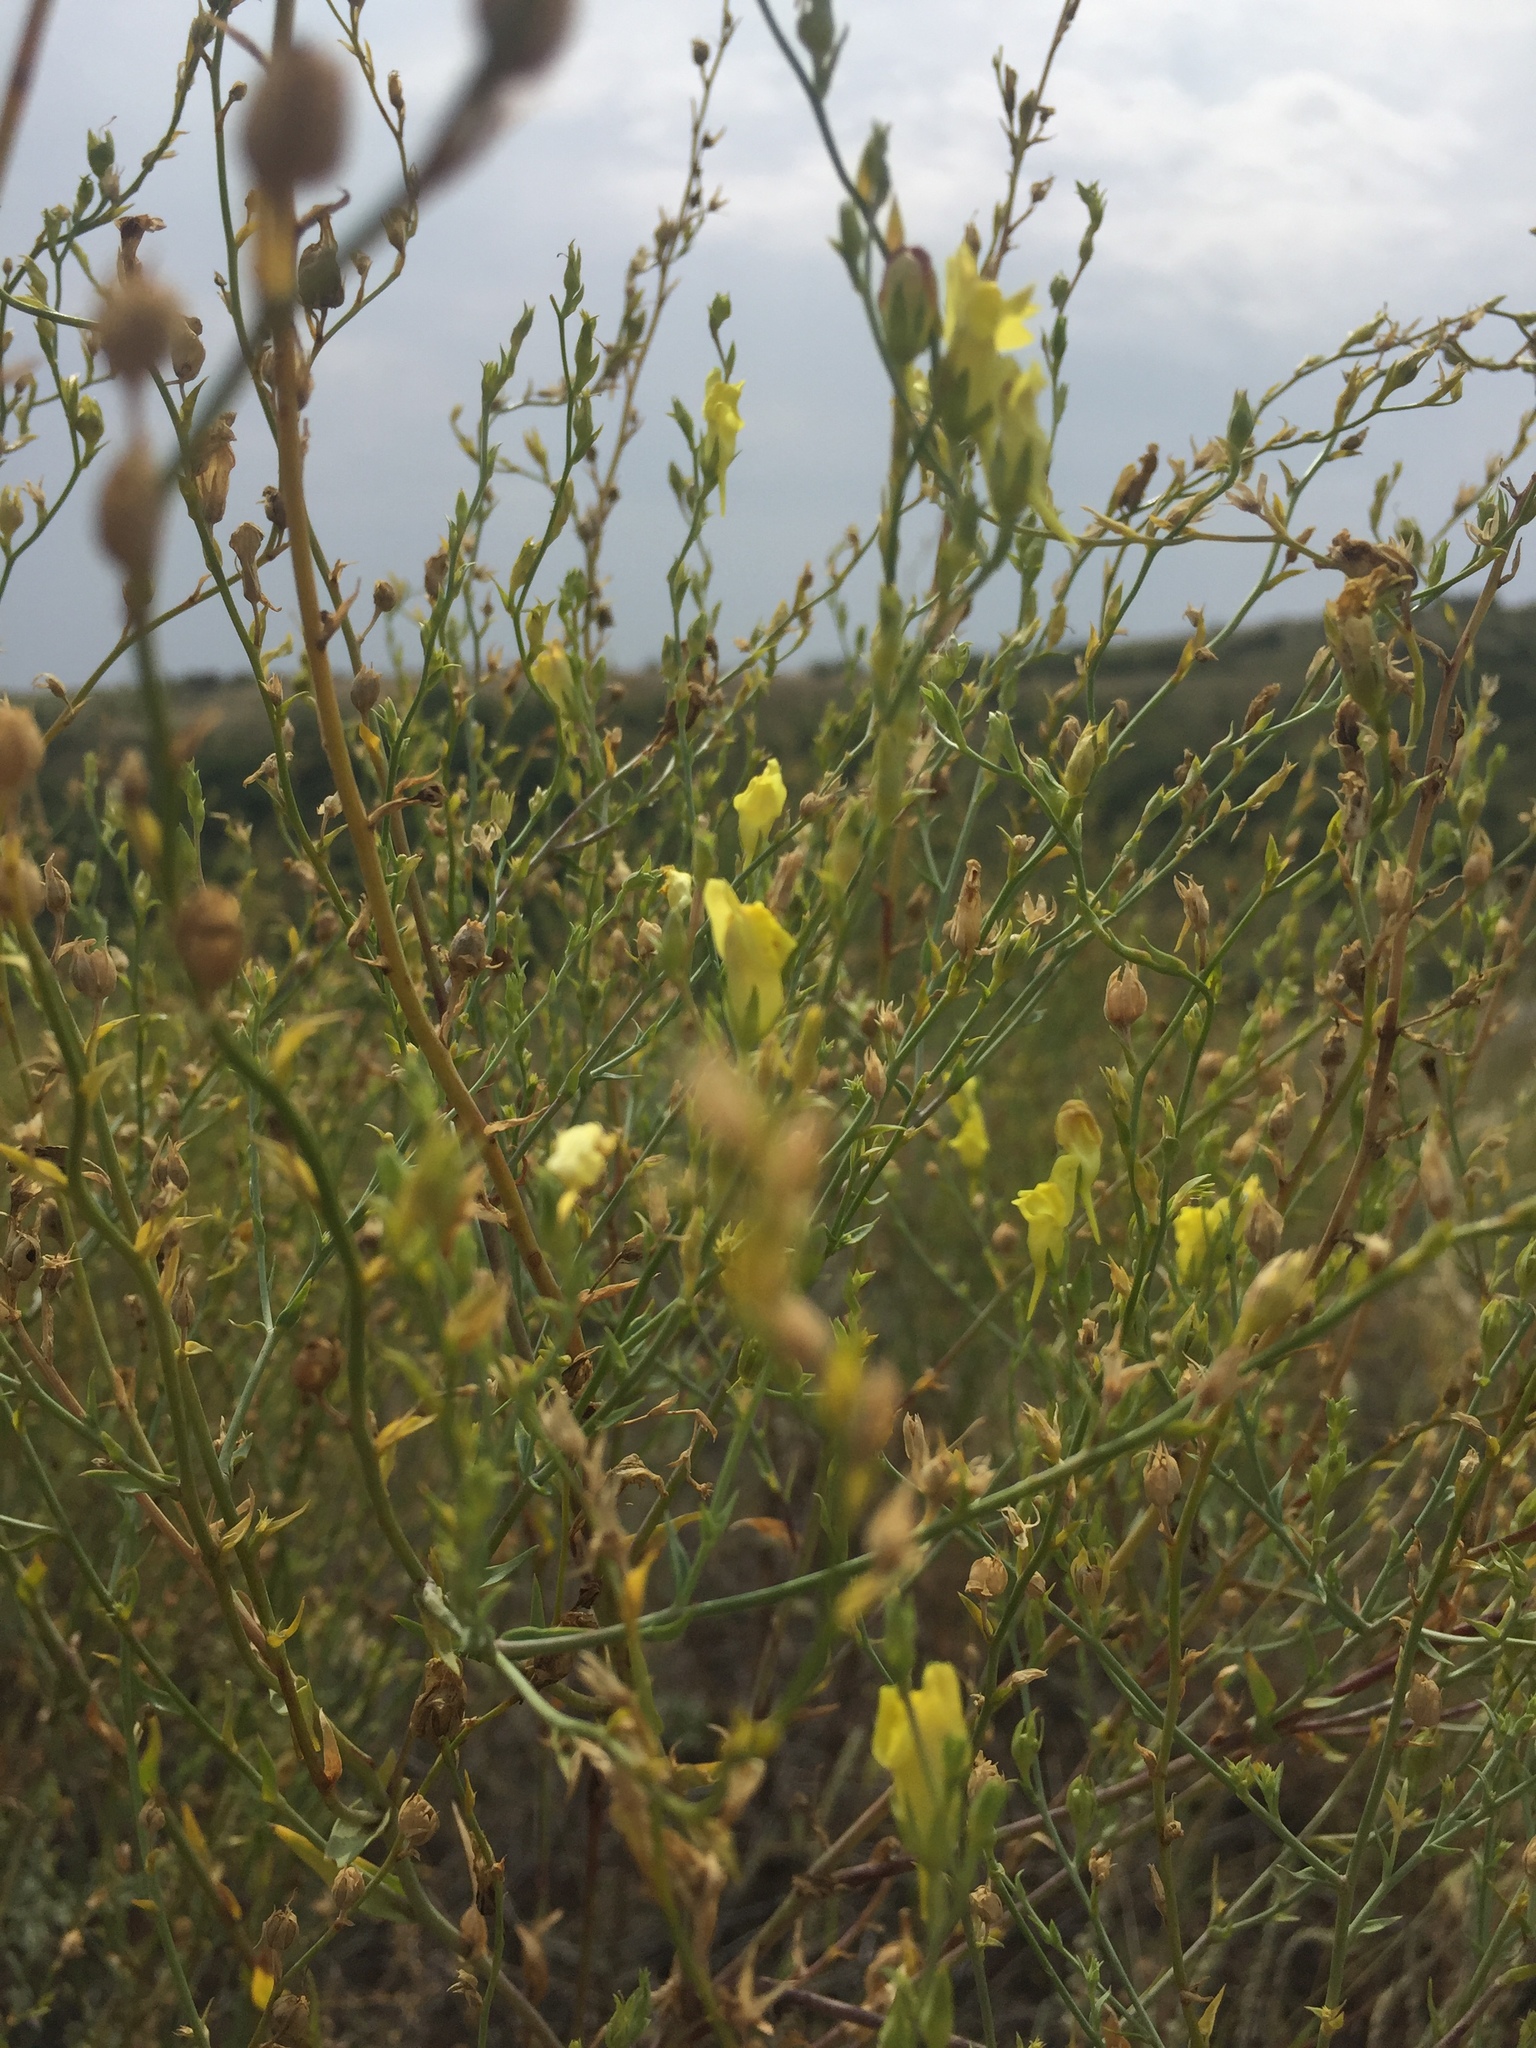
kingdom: Plantae
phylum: Tracheophyta
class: Magnoliopsida
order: Lamiales
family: Plantaginaceae
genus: Linaria
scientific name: Linaria genistifolia
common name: Broomleaf toadflax
